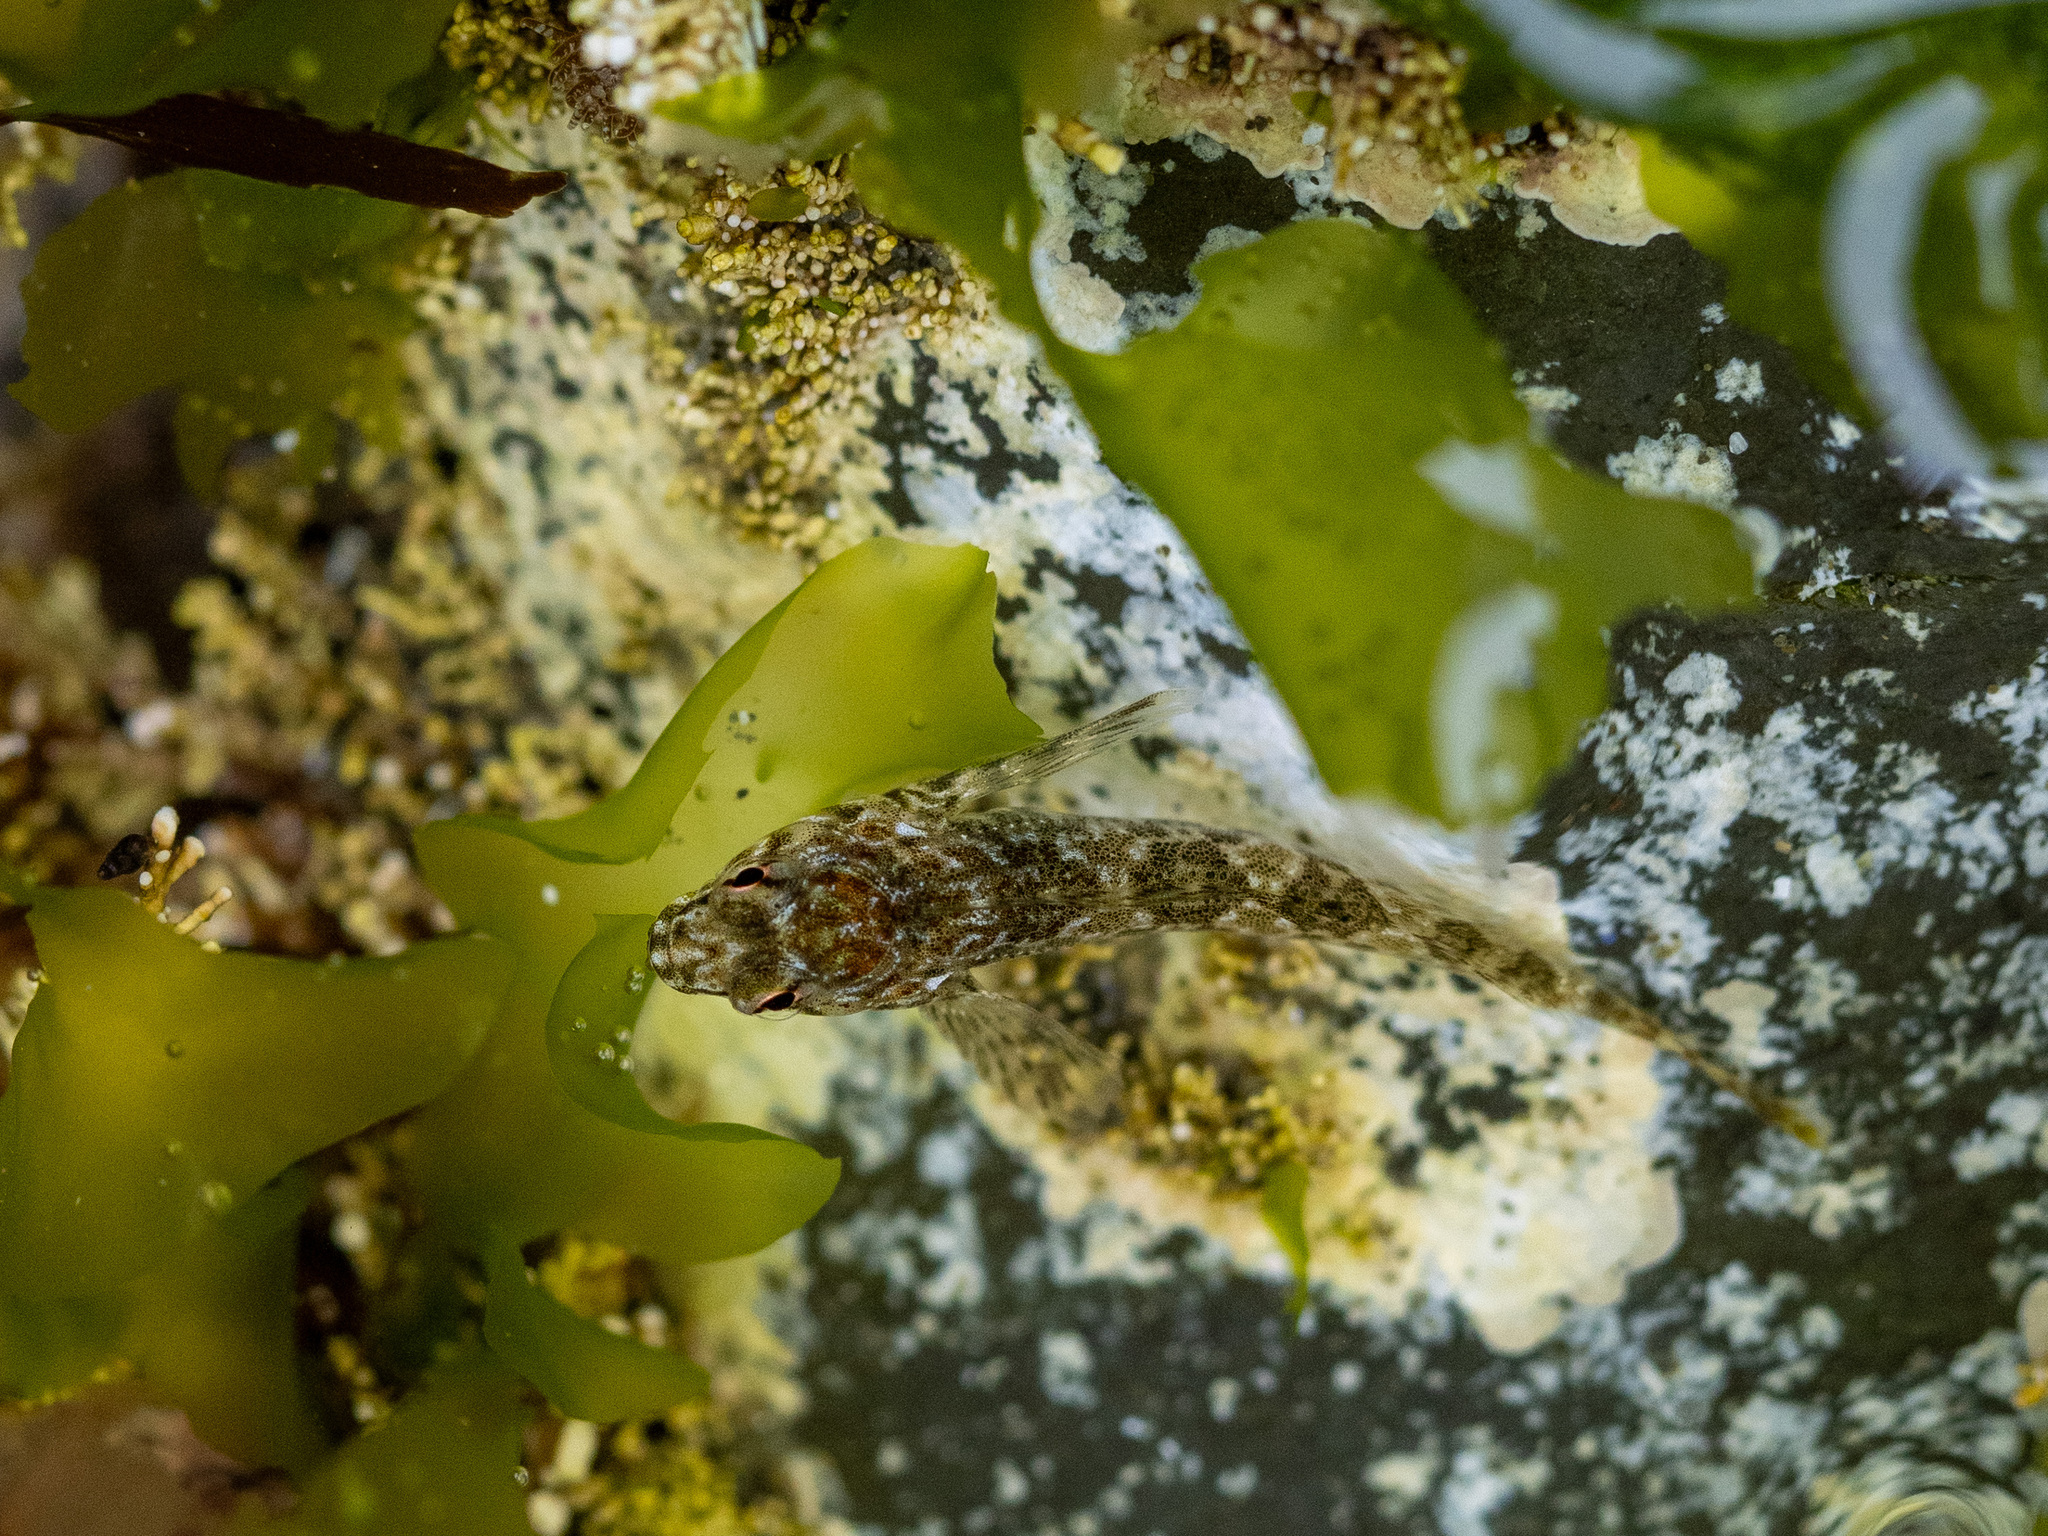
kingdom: Animalia
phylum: Chordata
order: Perciformes
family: Tripterygiidae
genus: Bellapiscis
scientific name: Bellapiscis medius
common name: Twister
